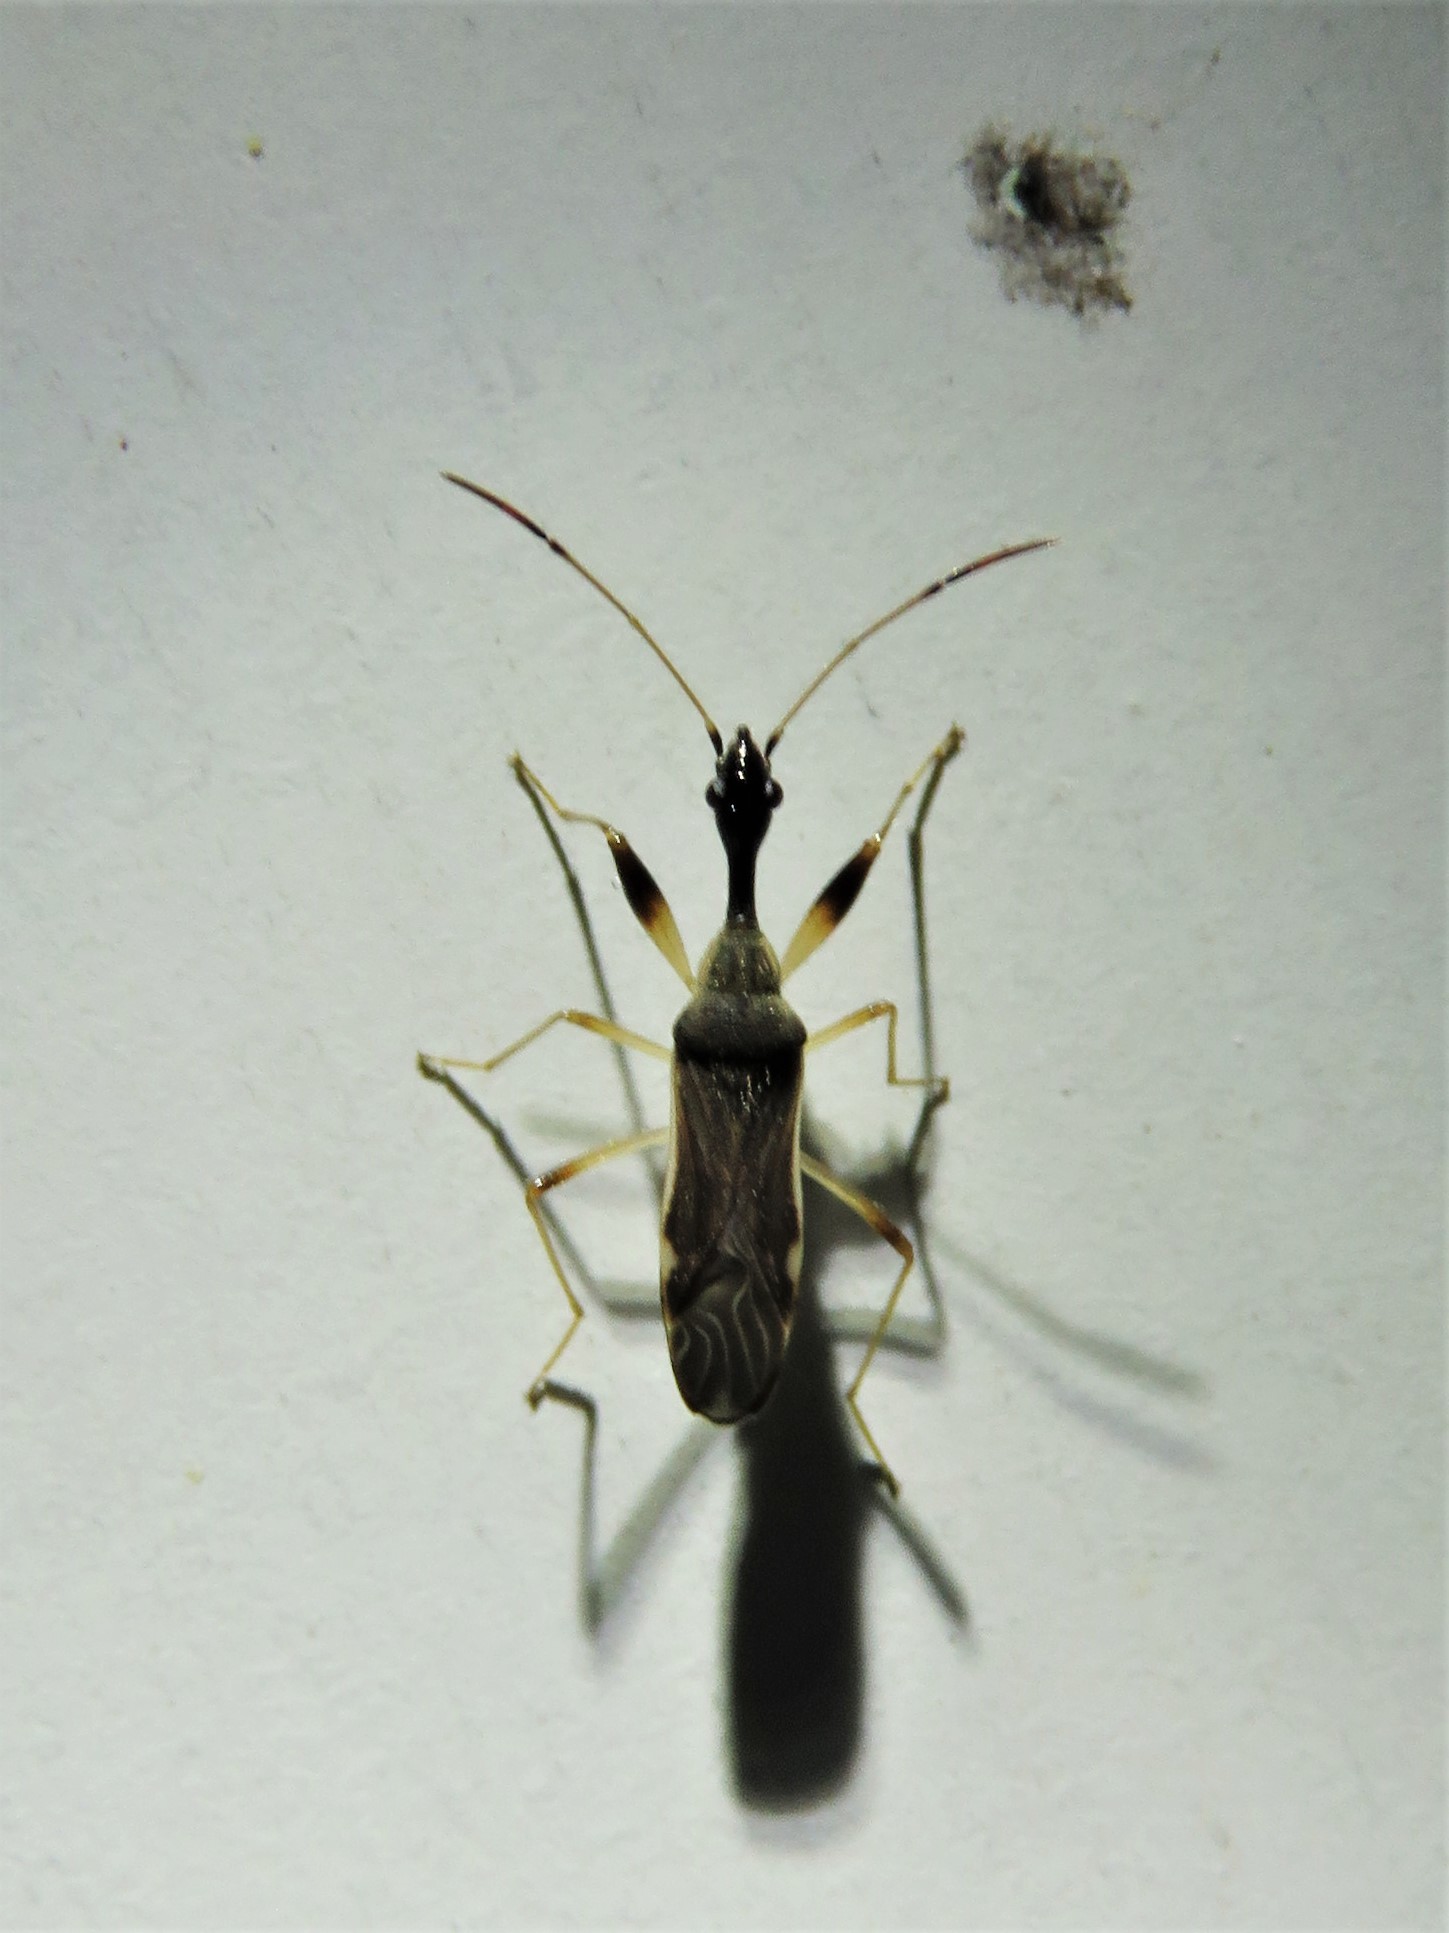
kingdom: Animalia
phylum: Arthropoda
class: Insecta
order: Hemiptera
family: Rhyparochromidae
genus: Myodocha
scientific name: Myodocha serripes
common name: Long-necked seed bug
